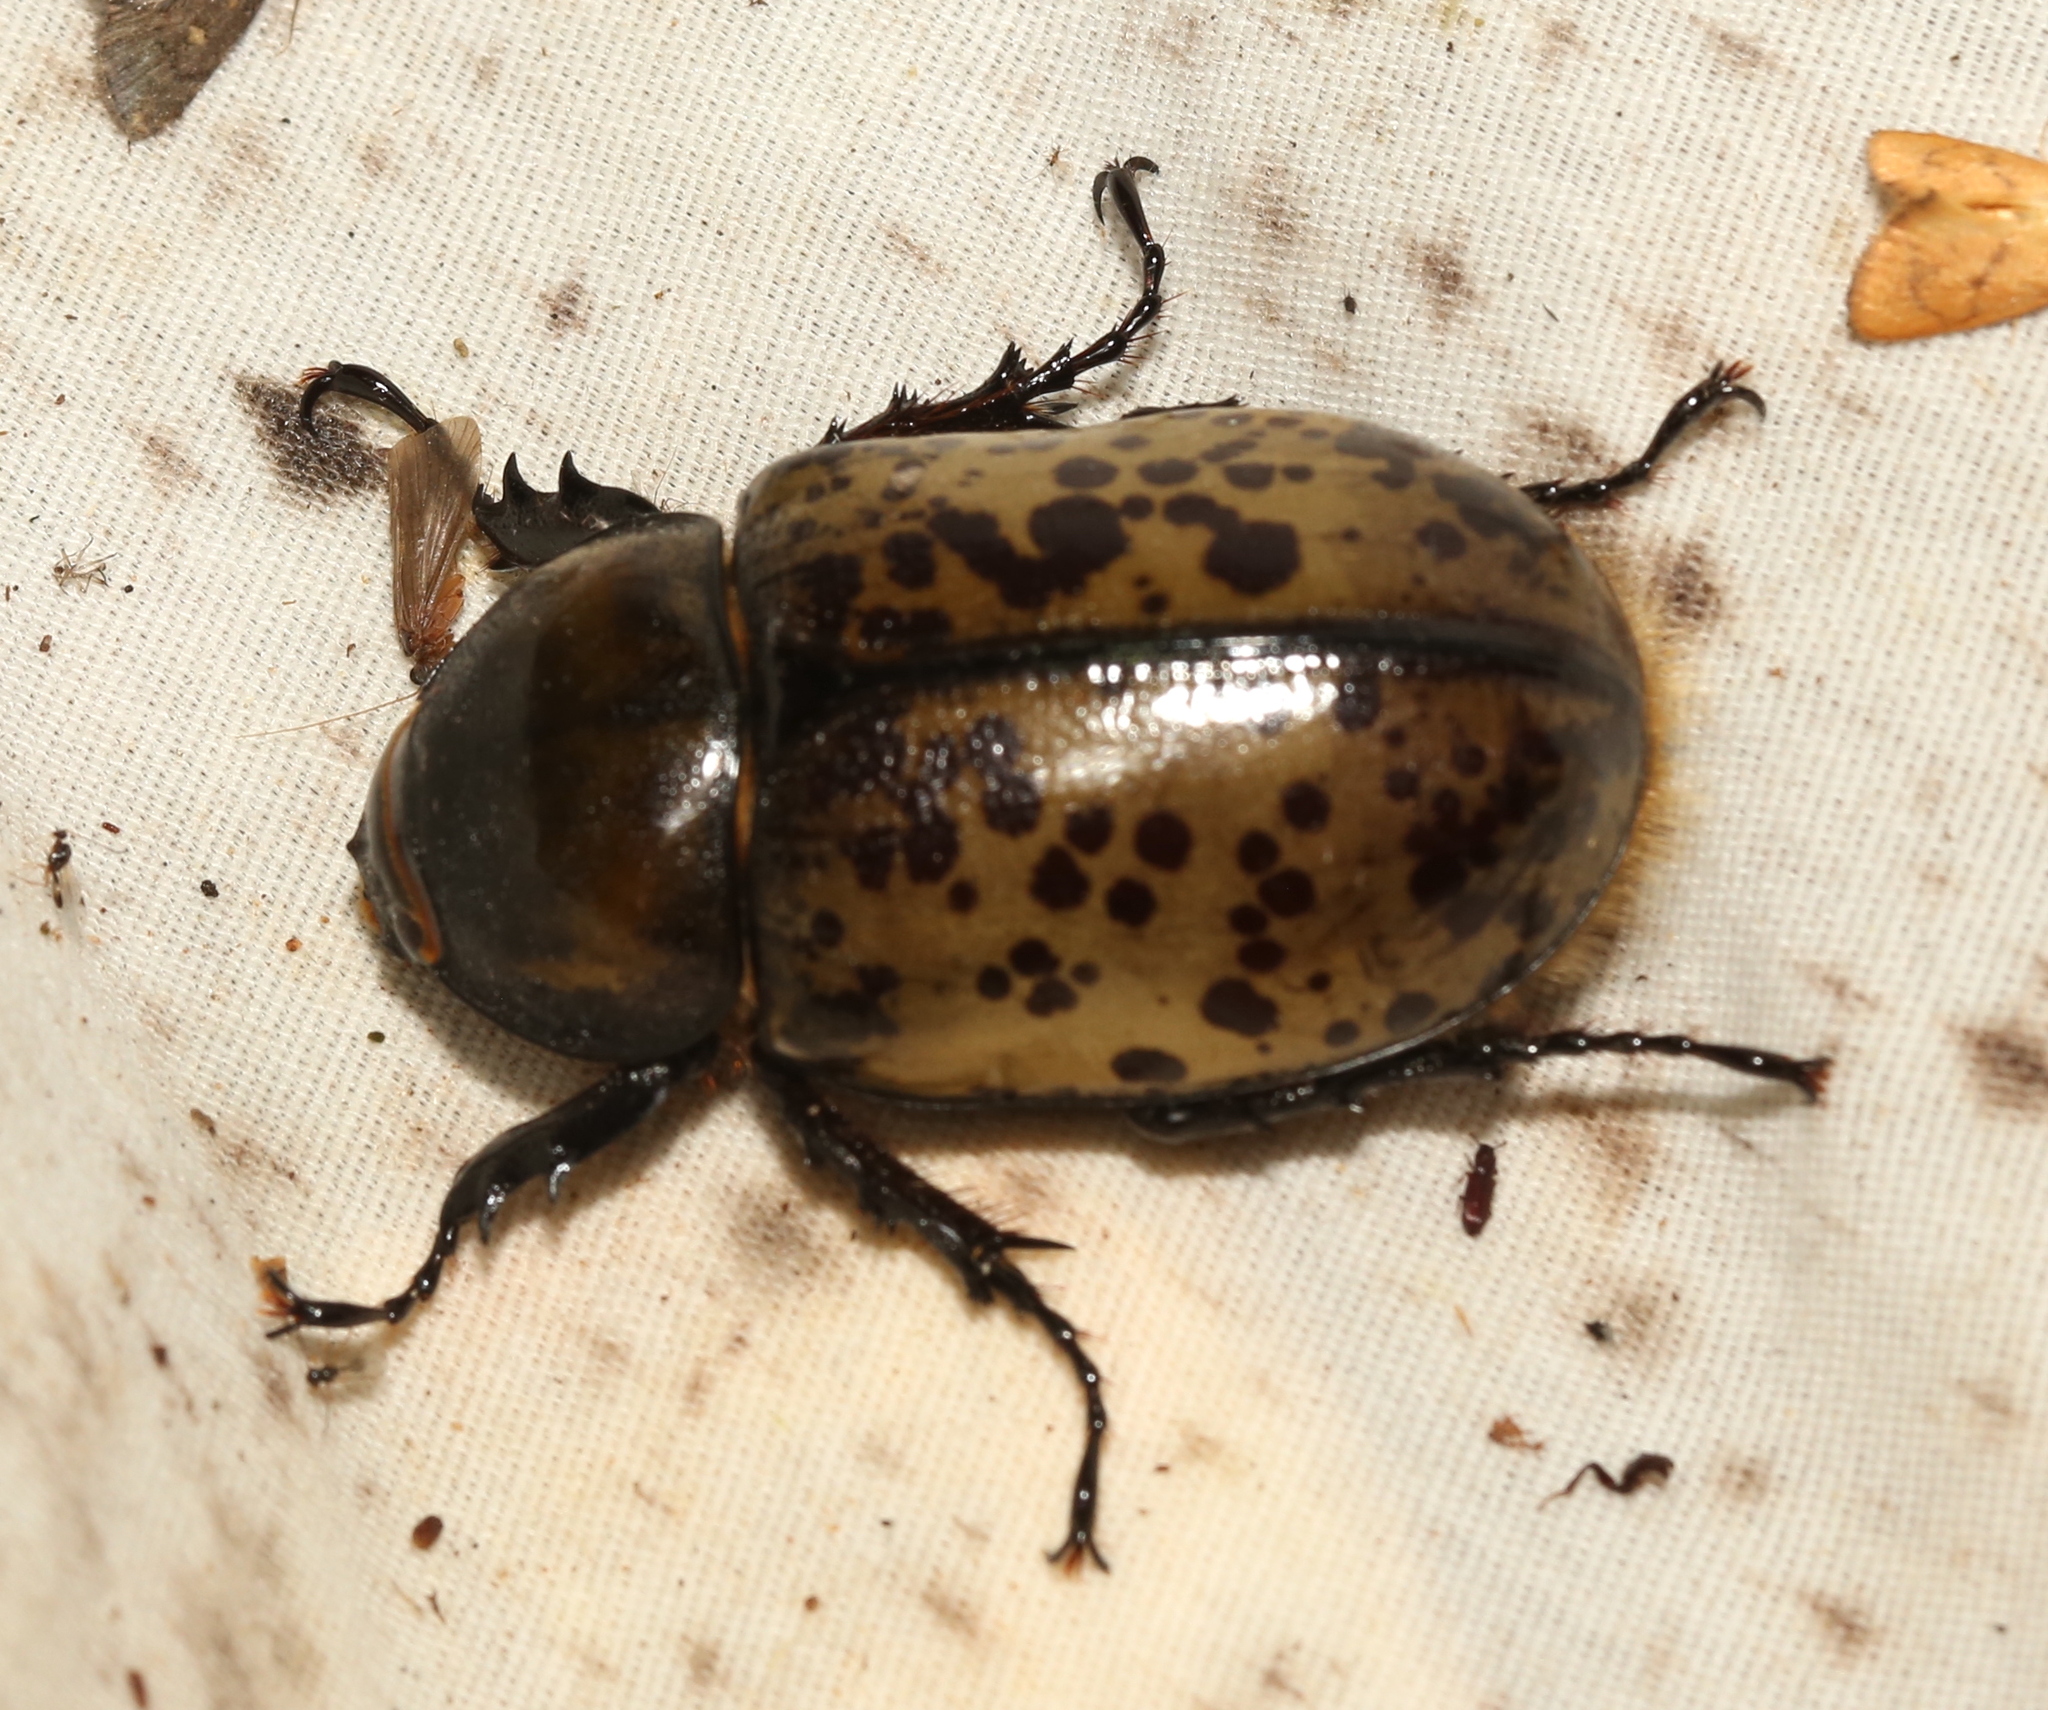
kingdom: Animalia
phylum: Arthropoda
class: Insecta
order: Coleoptera
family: Scarabaeidae
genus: Dynastes
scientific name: Dynastes tityus
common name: Eastern hercules beetle
